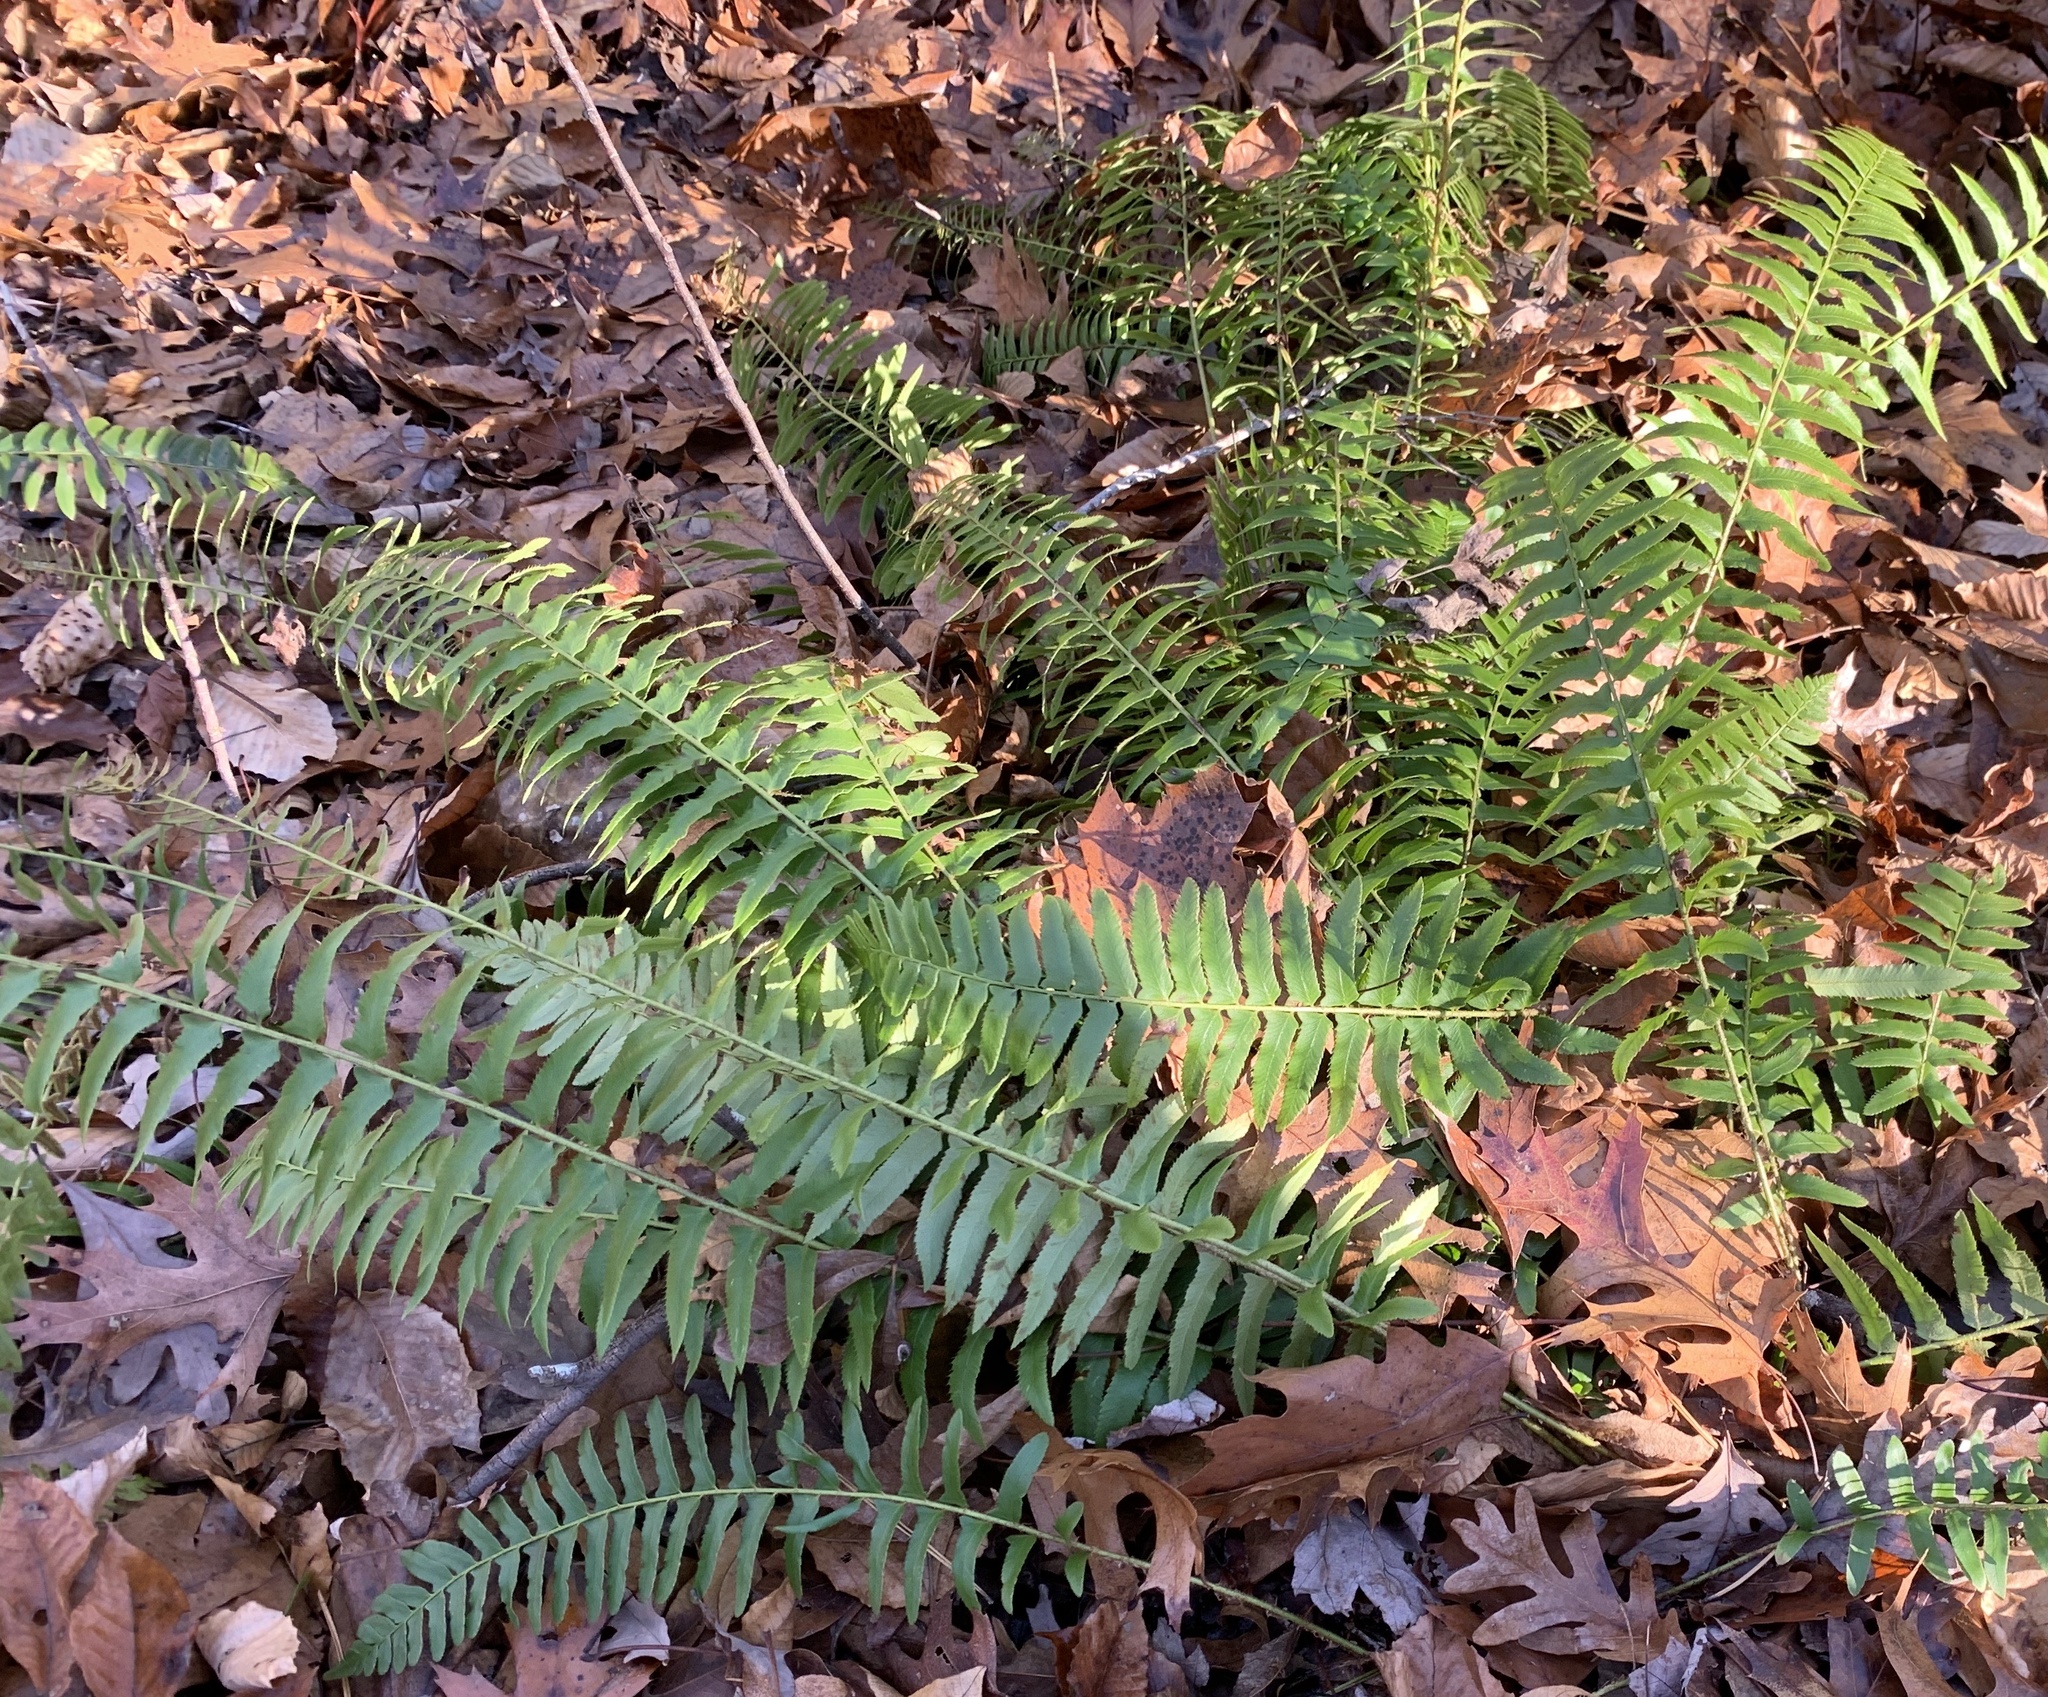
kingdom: Plantae
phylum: Tracheophyta
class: Polypodiopsida
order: Polypodiales
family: Dryopteridaceae
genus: Polystichum
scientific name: Polystichum acrostichoides
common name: Christmas fern
